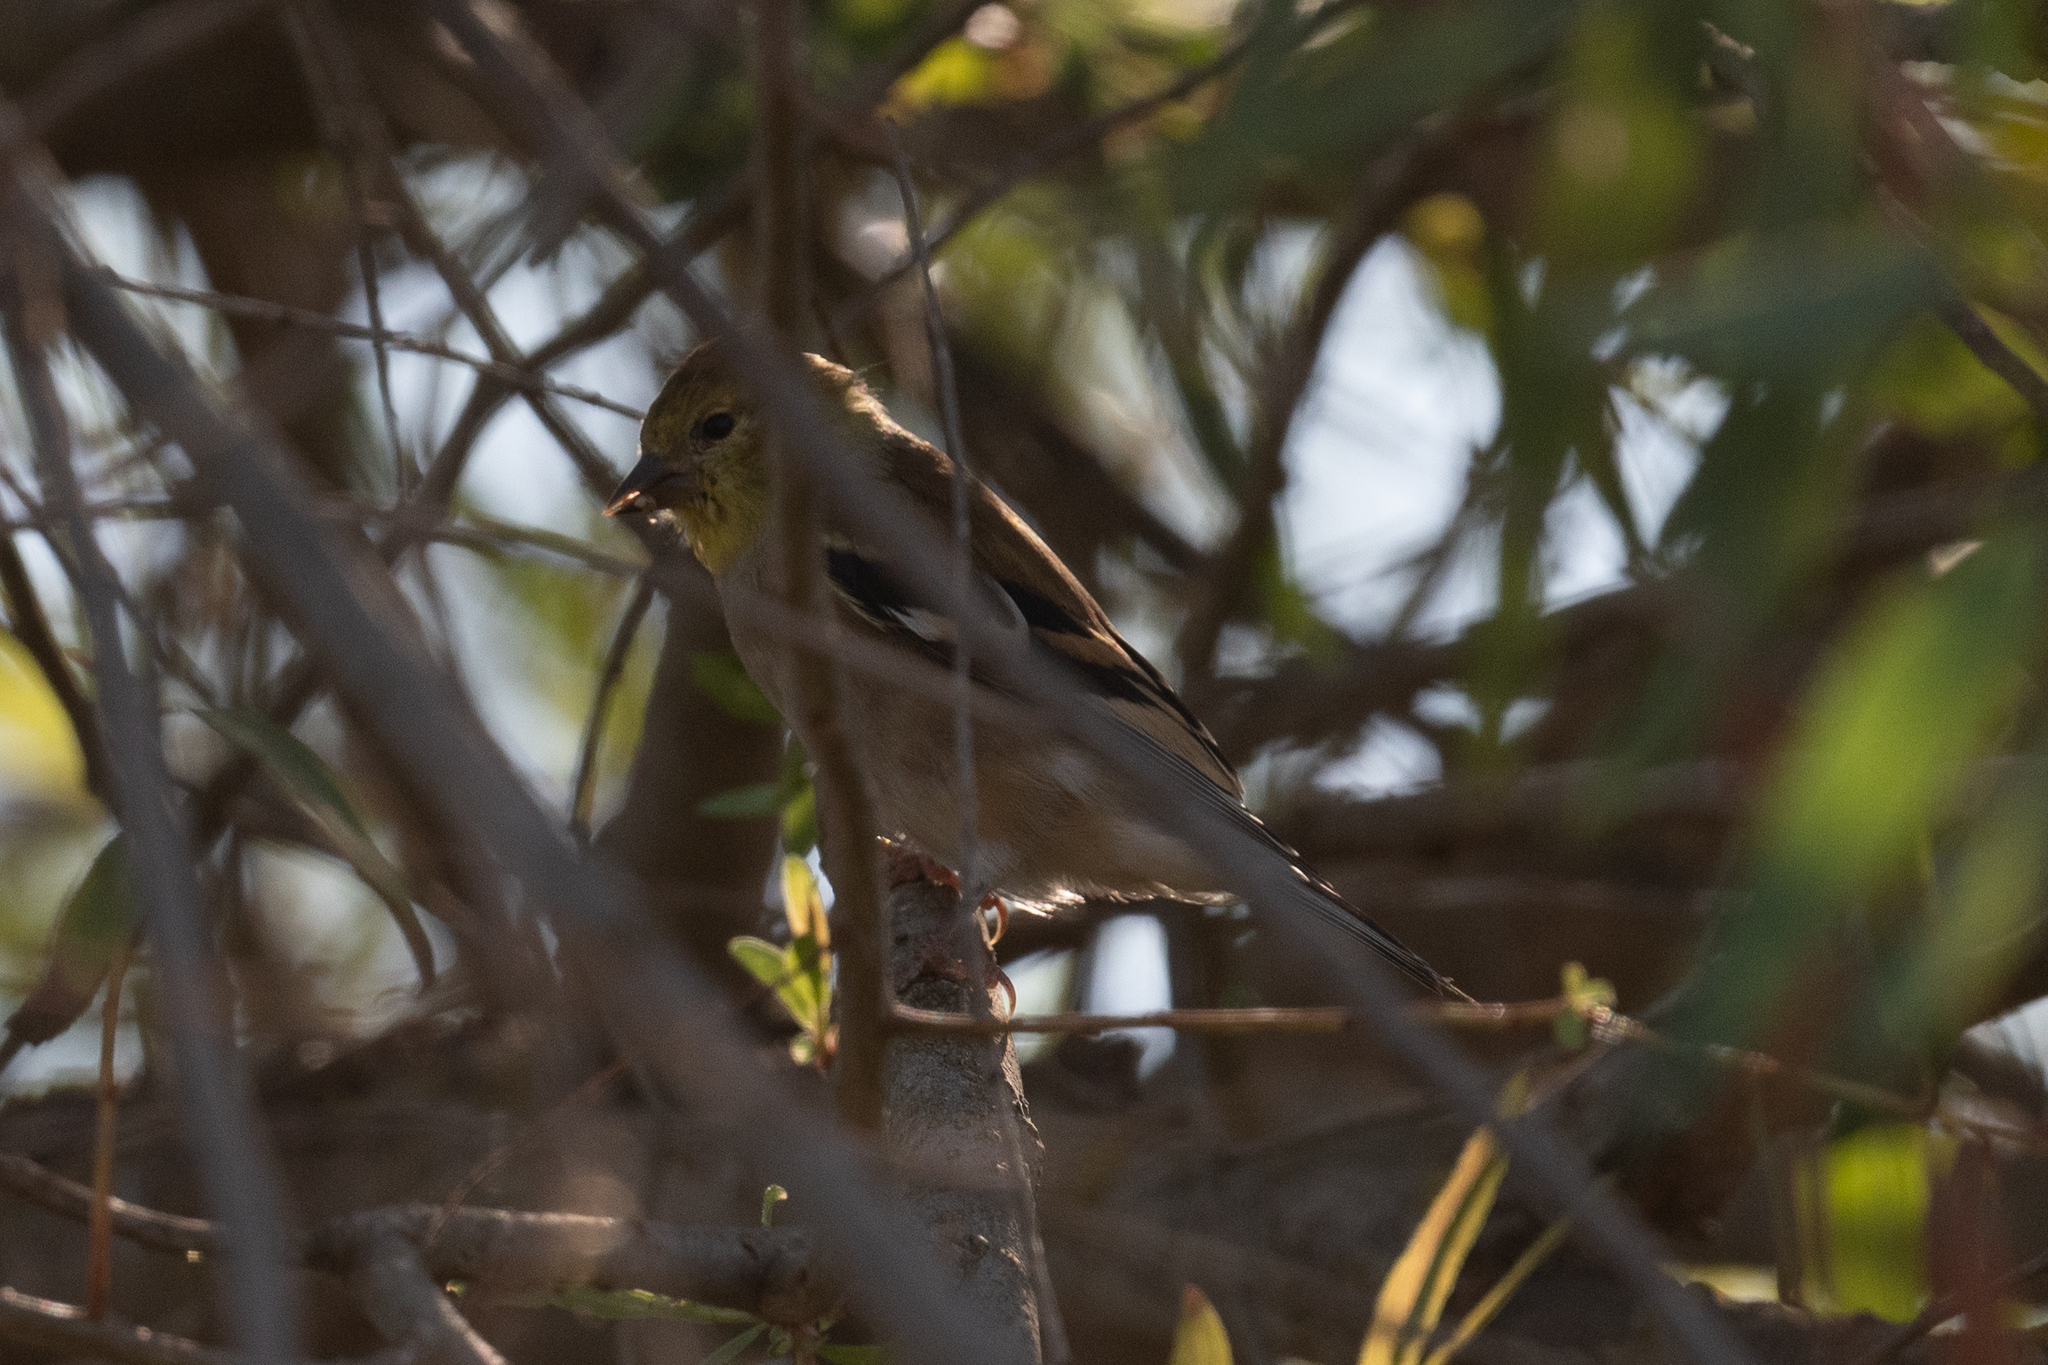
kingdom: Animalia
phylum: Chordata
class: Aves
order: Passeriformes
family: Fringillidae
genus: Spinus
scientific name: Spinus tristis
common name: American goldfinch
